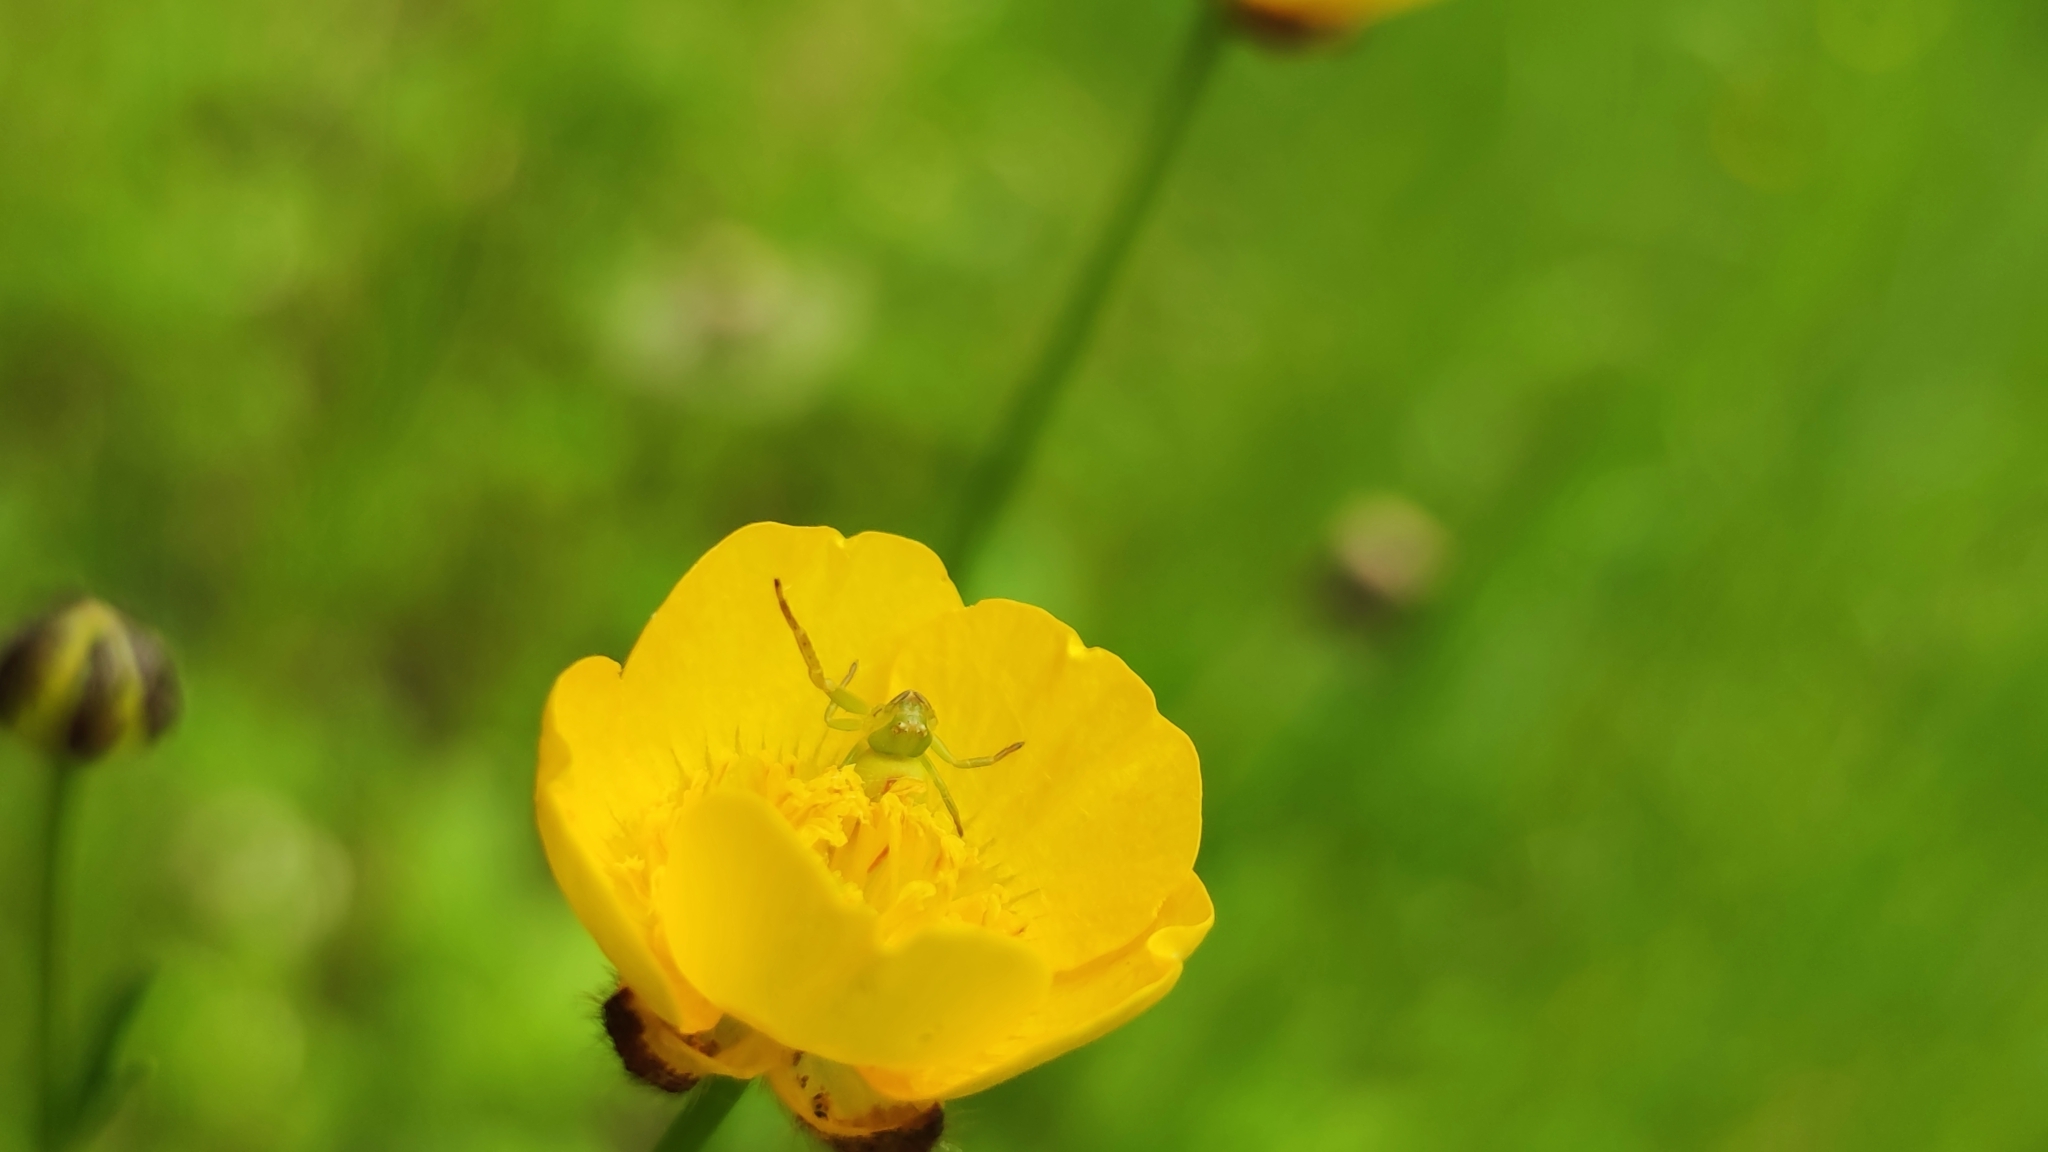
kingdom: Animalia
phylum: Arthropoda
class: Arachnida
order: Araneae
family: Thomisidae
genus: Ebrechtella
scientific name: Ebrechtella tricuspidata
